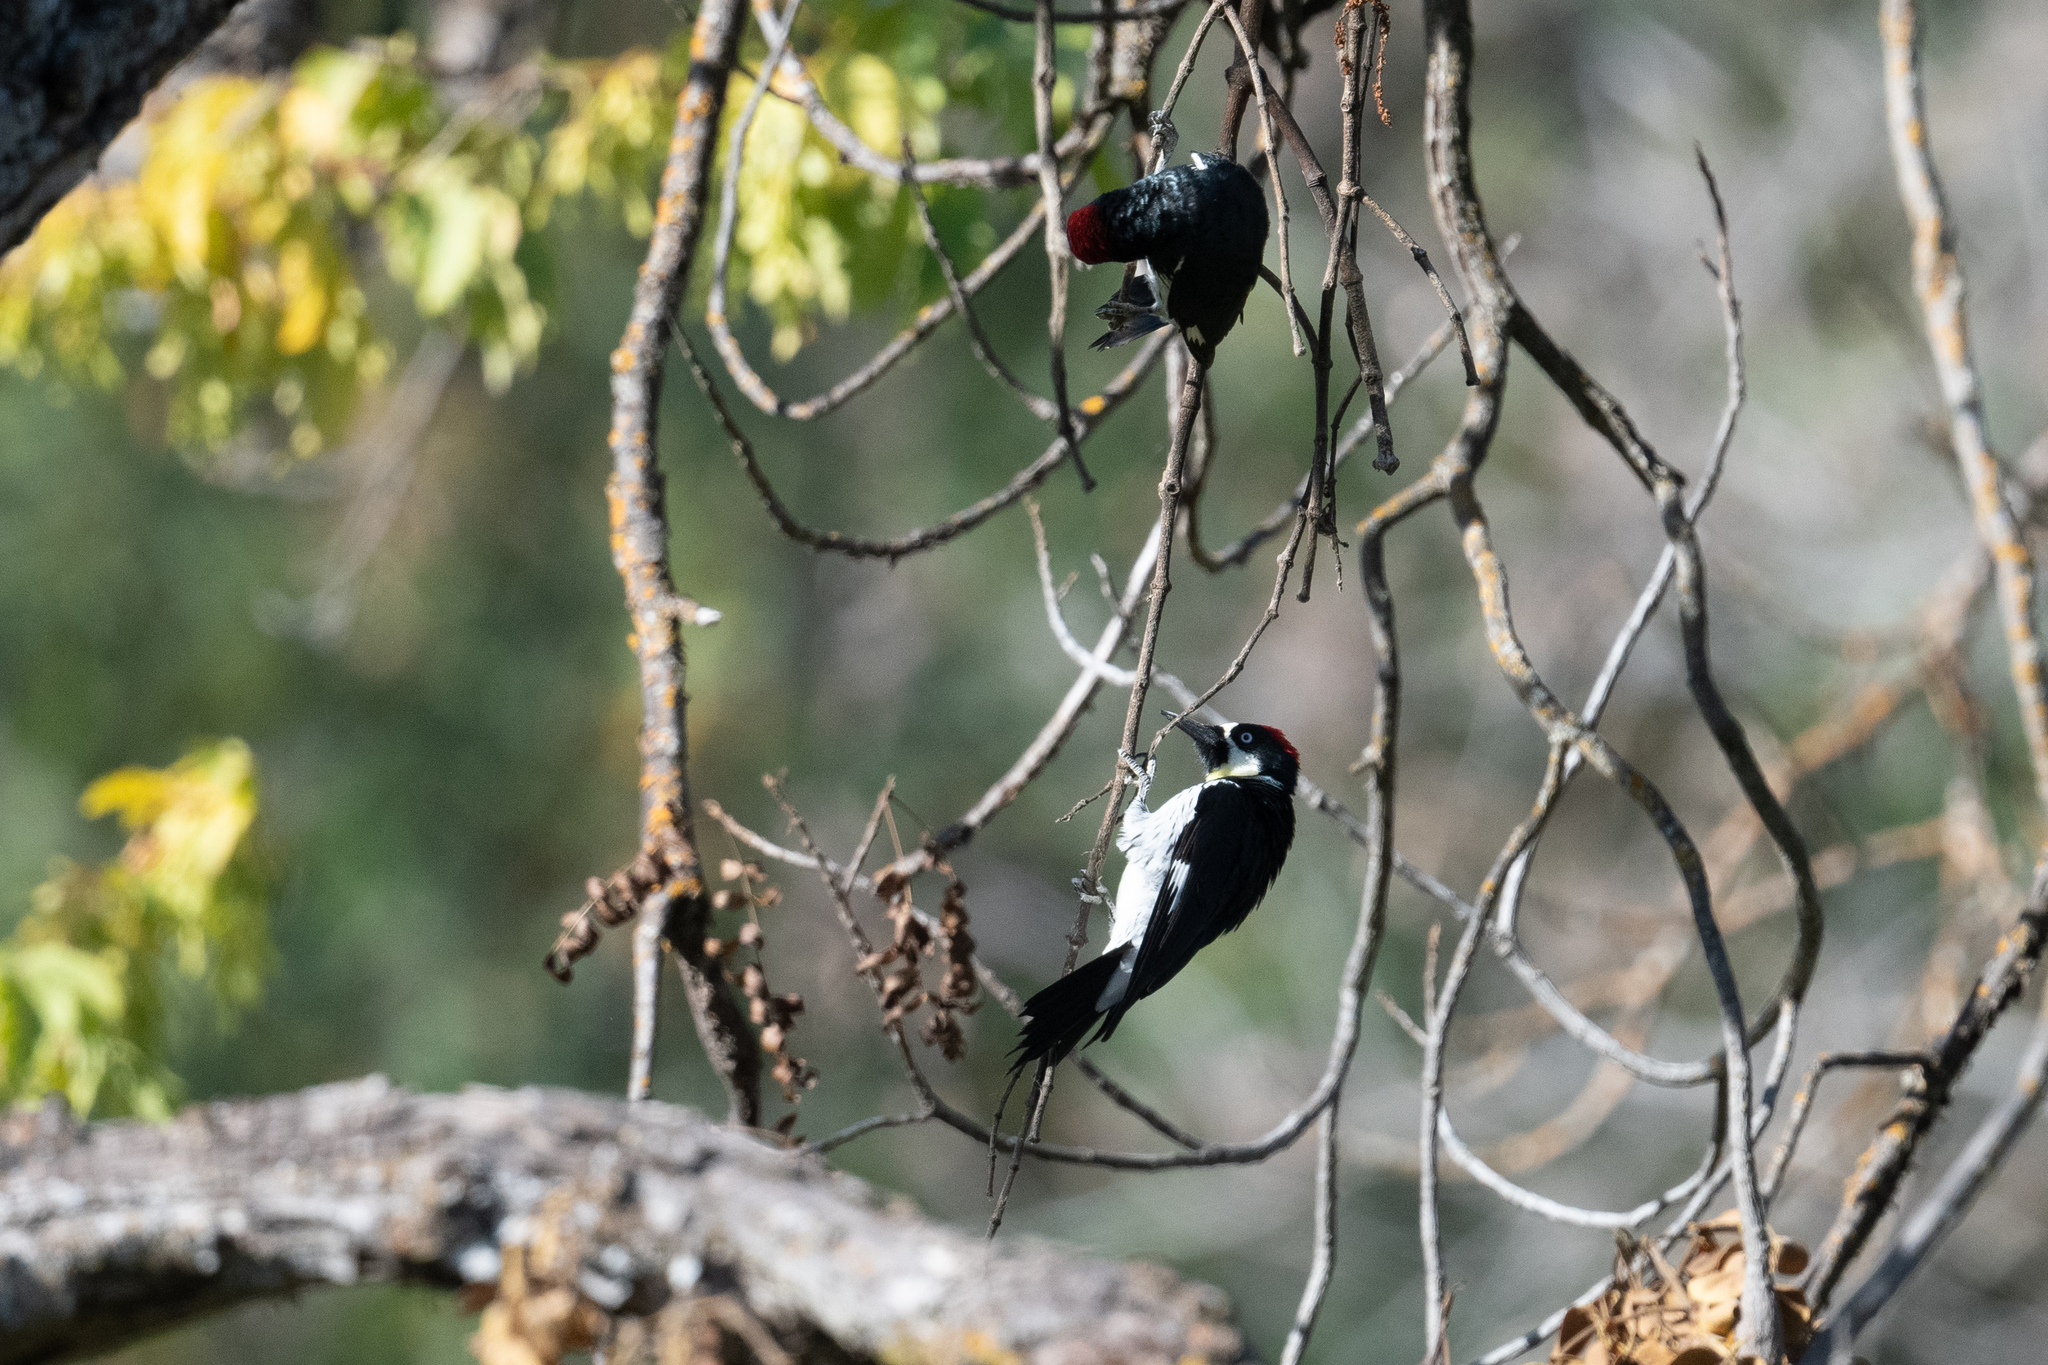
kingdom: Animalia
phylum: Chordata
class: Aves
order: Piciformes
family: Picidae
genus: Melanerpes
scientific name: Melanerpes formicivorus
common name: Acorn woodpecker
